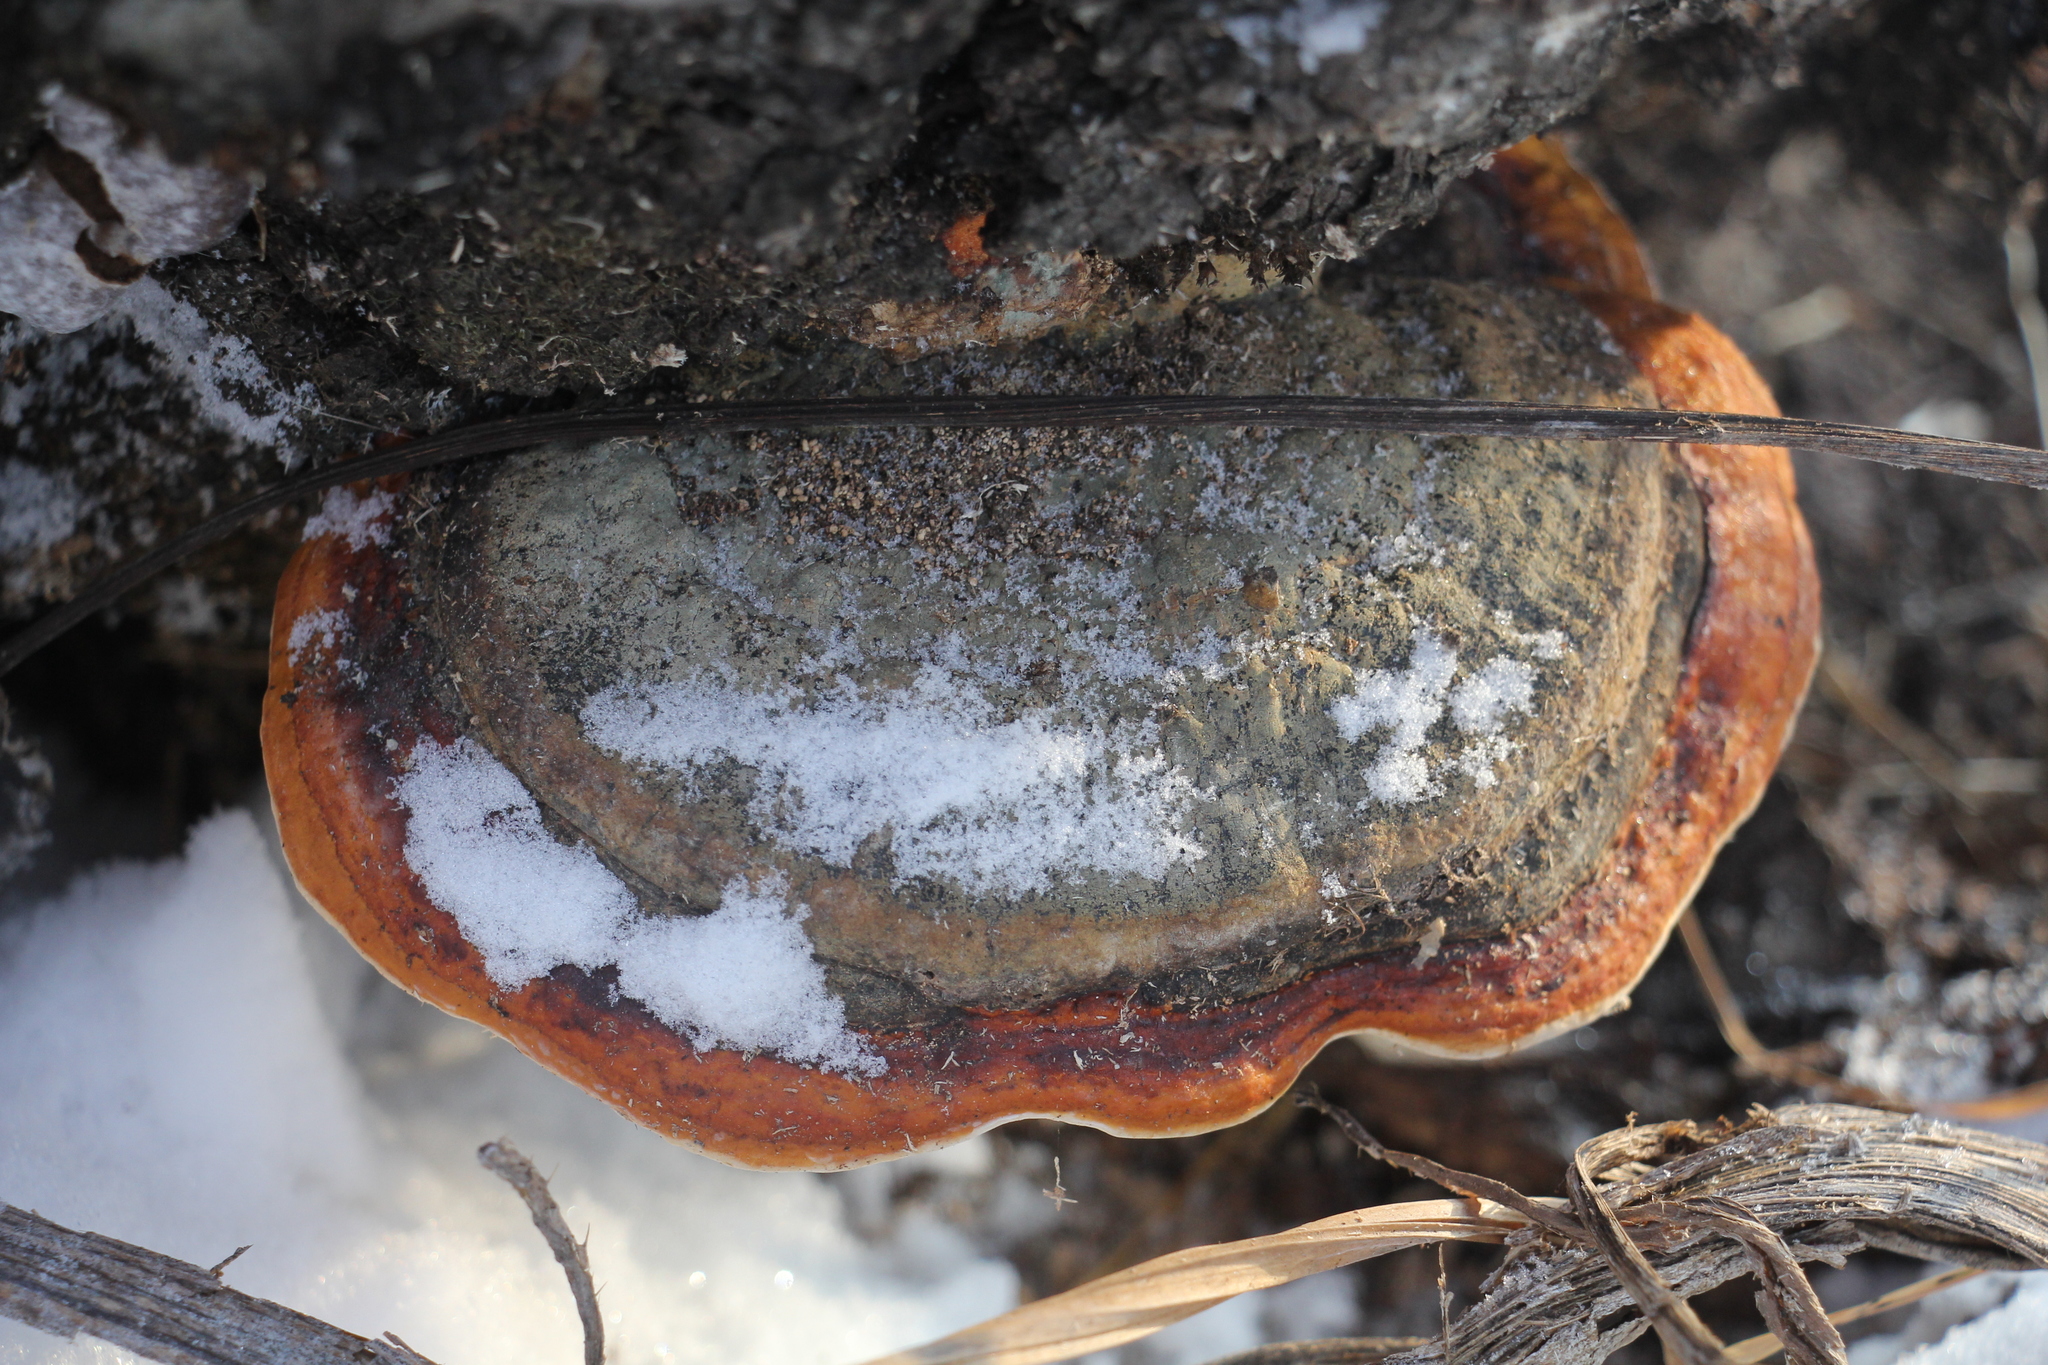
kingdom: Fungi
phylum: Basidiomycota
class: Agaricomycetes
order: Polyporales
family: Fomitopsidaceae
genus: Fomitopsis
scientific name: Fomitopsis pinicola
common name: Red-belted bracket
